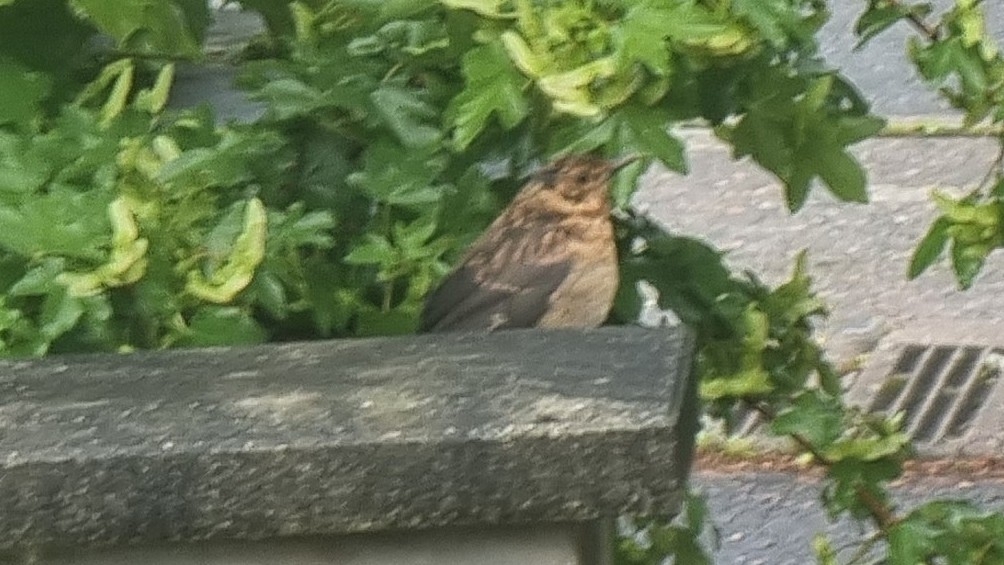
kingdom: Animalia
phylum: Chordata
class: Aves
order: Passeriformes
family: Turdidae
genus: Turdus
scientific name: Turdus merula
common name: Common blackbird
